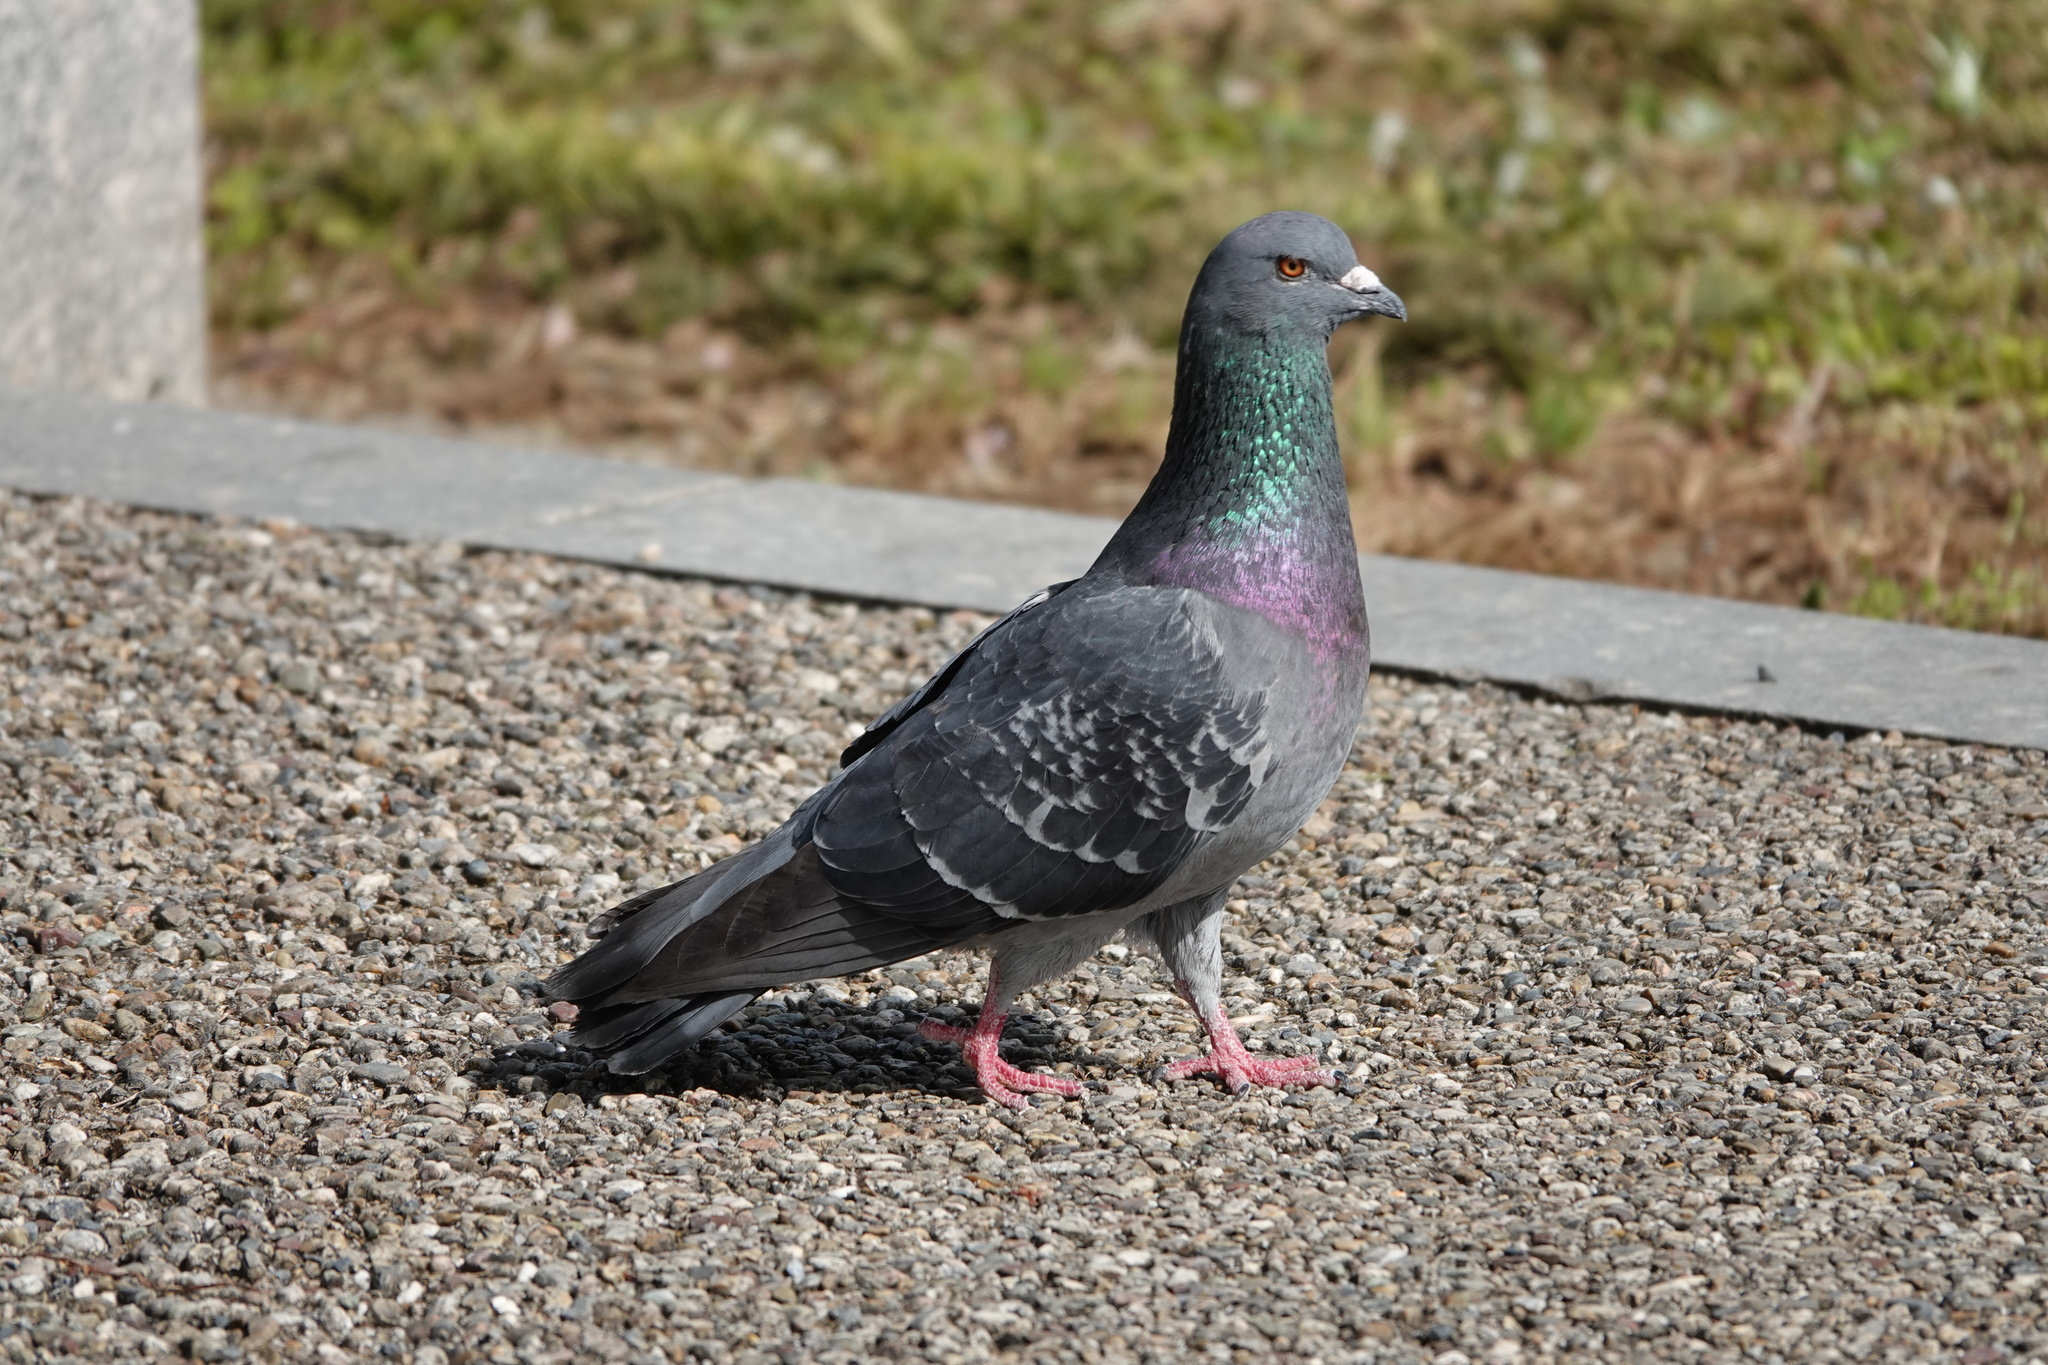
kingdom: Animalia
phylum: Chordata
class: Aves
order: Columbiformes
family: Columbidae
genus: Columba
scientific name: Columba livia
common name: Rock pigeon
